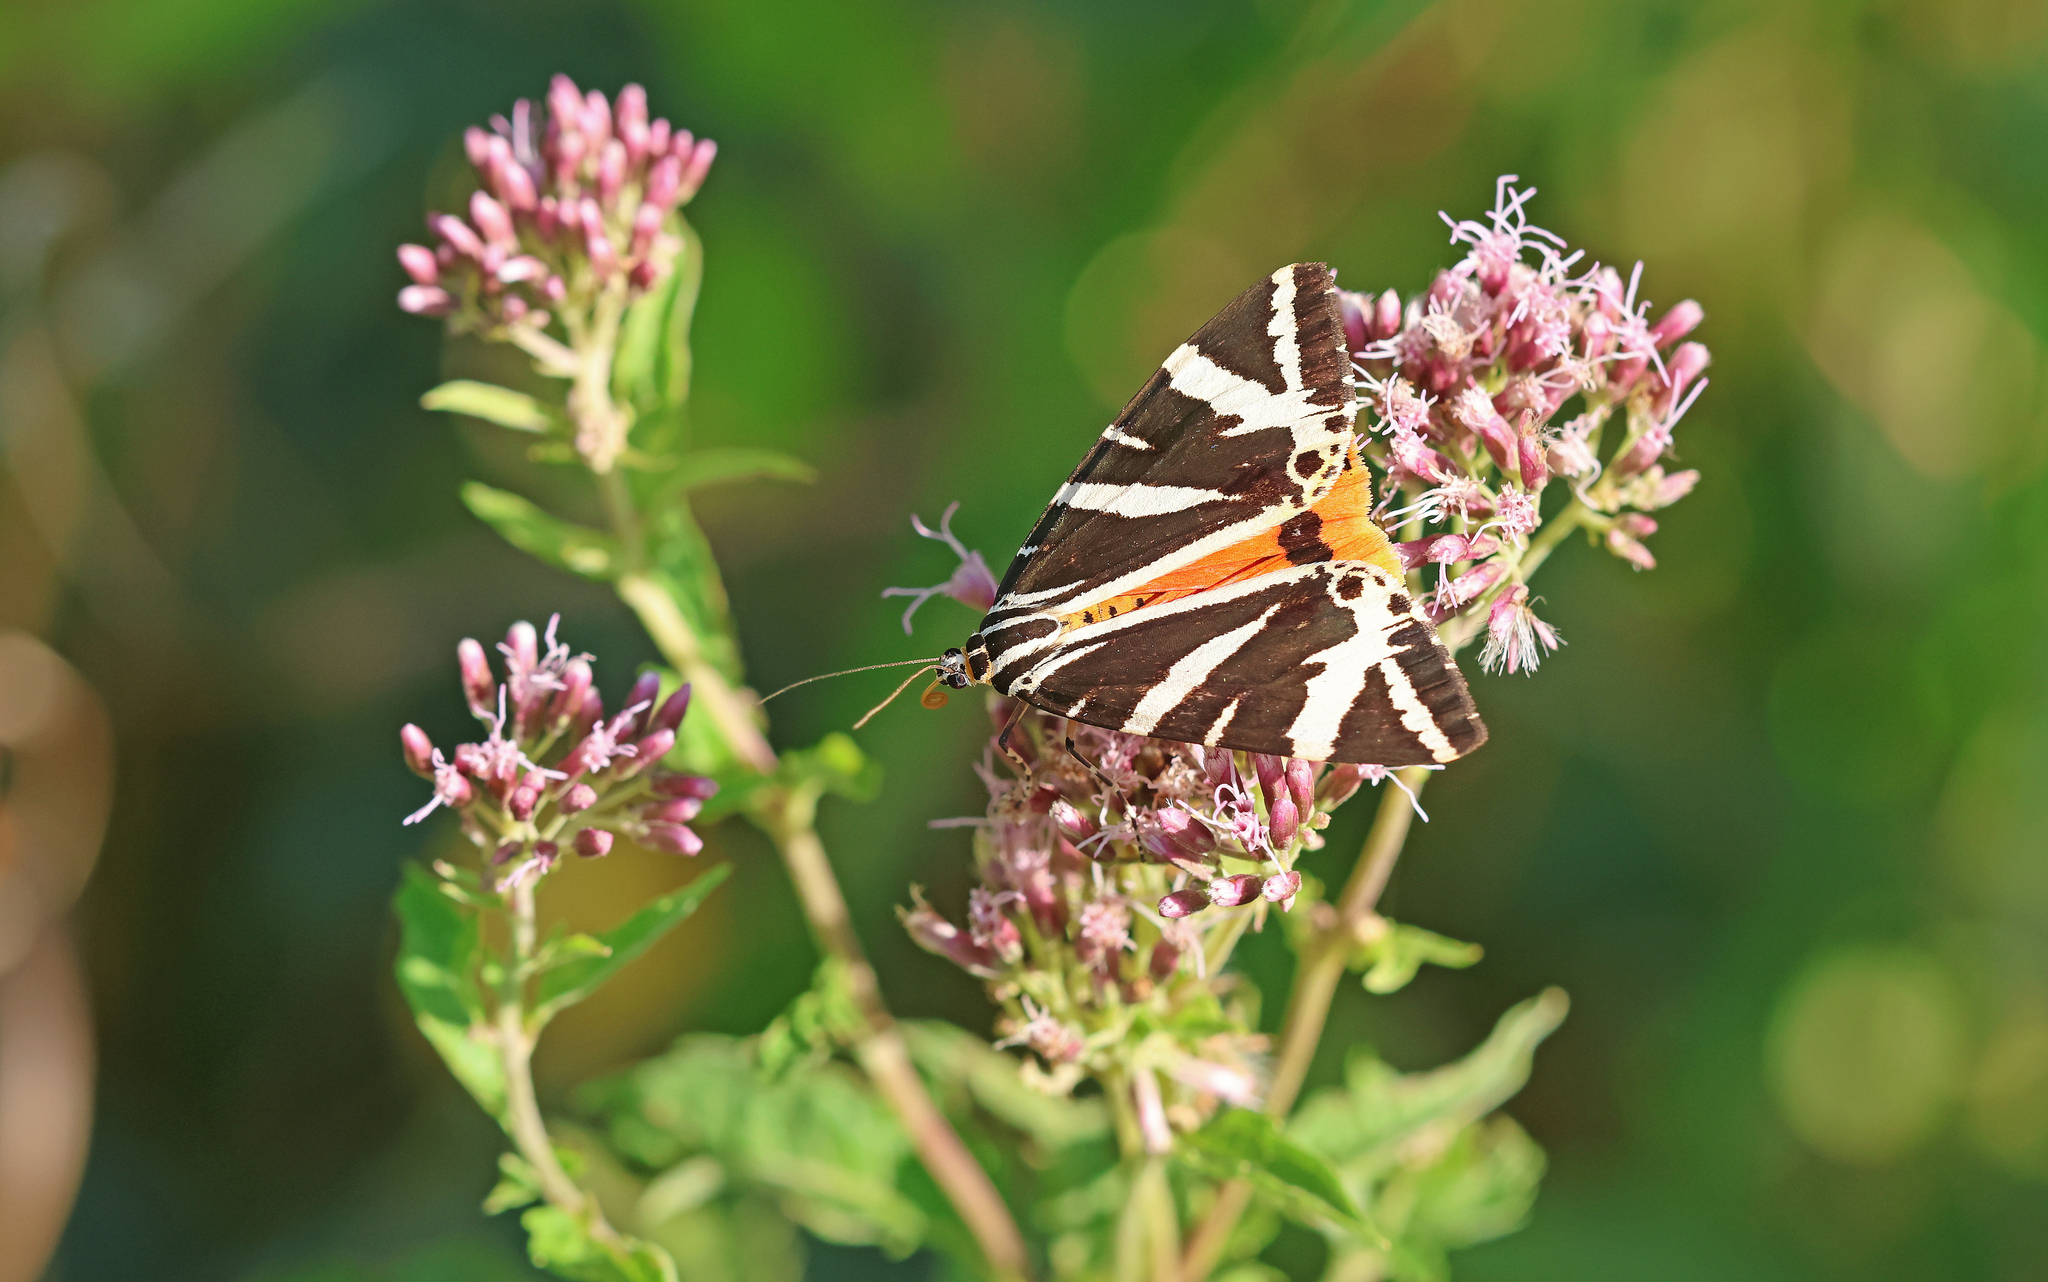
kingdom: Animalia
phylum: Arthropoda
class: Insecta
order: Lepidoptera
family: Erebidae
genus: Euplagia
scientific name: Euplagia quadripunctaria
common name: Jersey tiger
